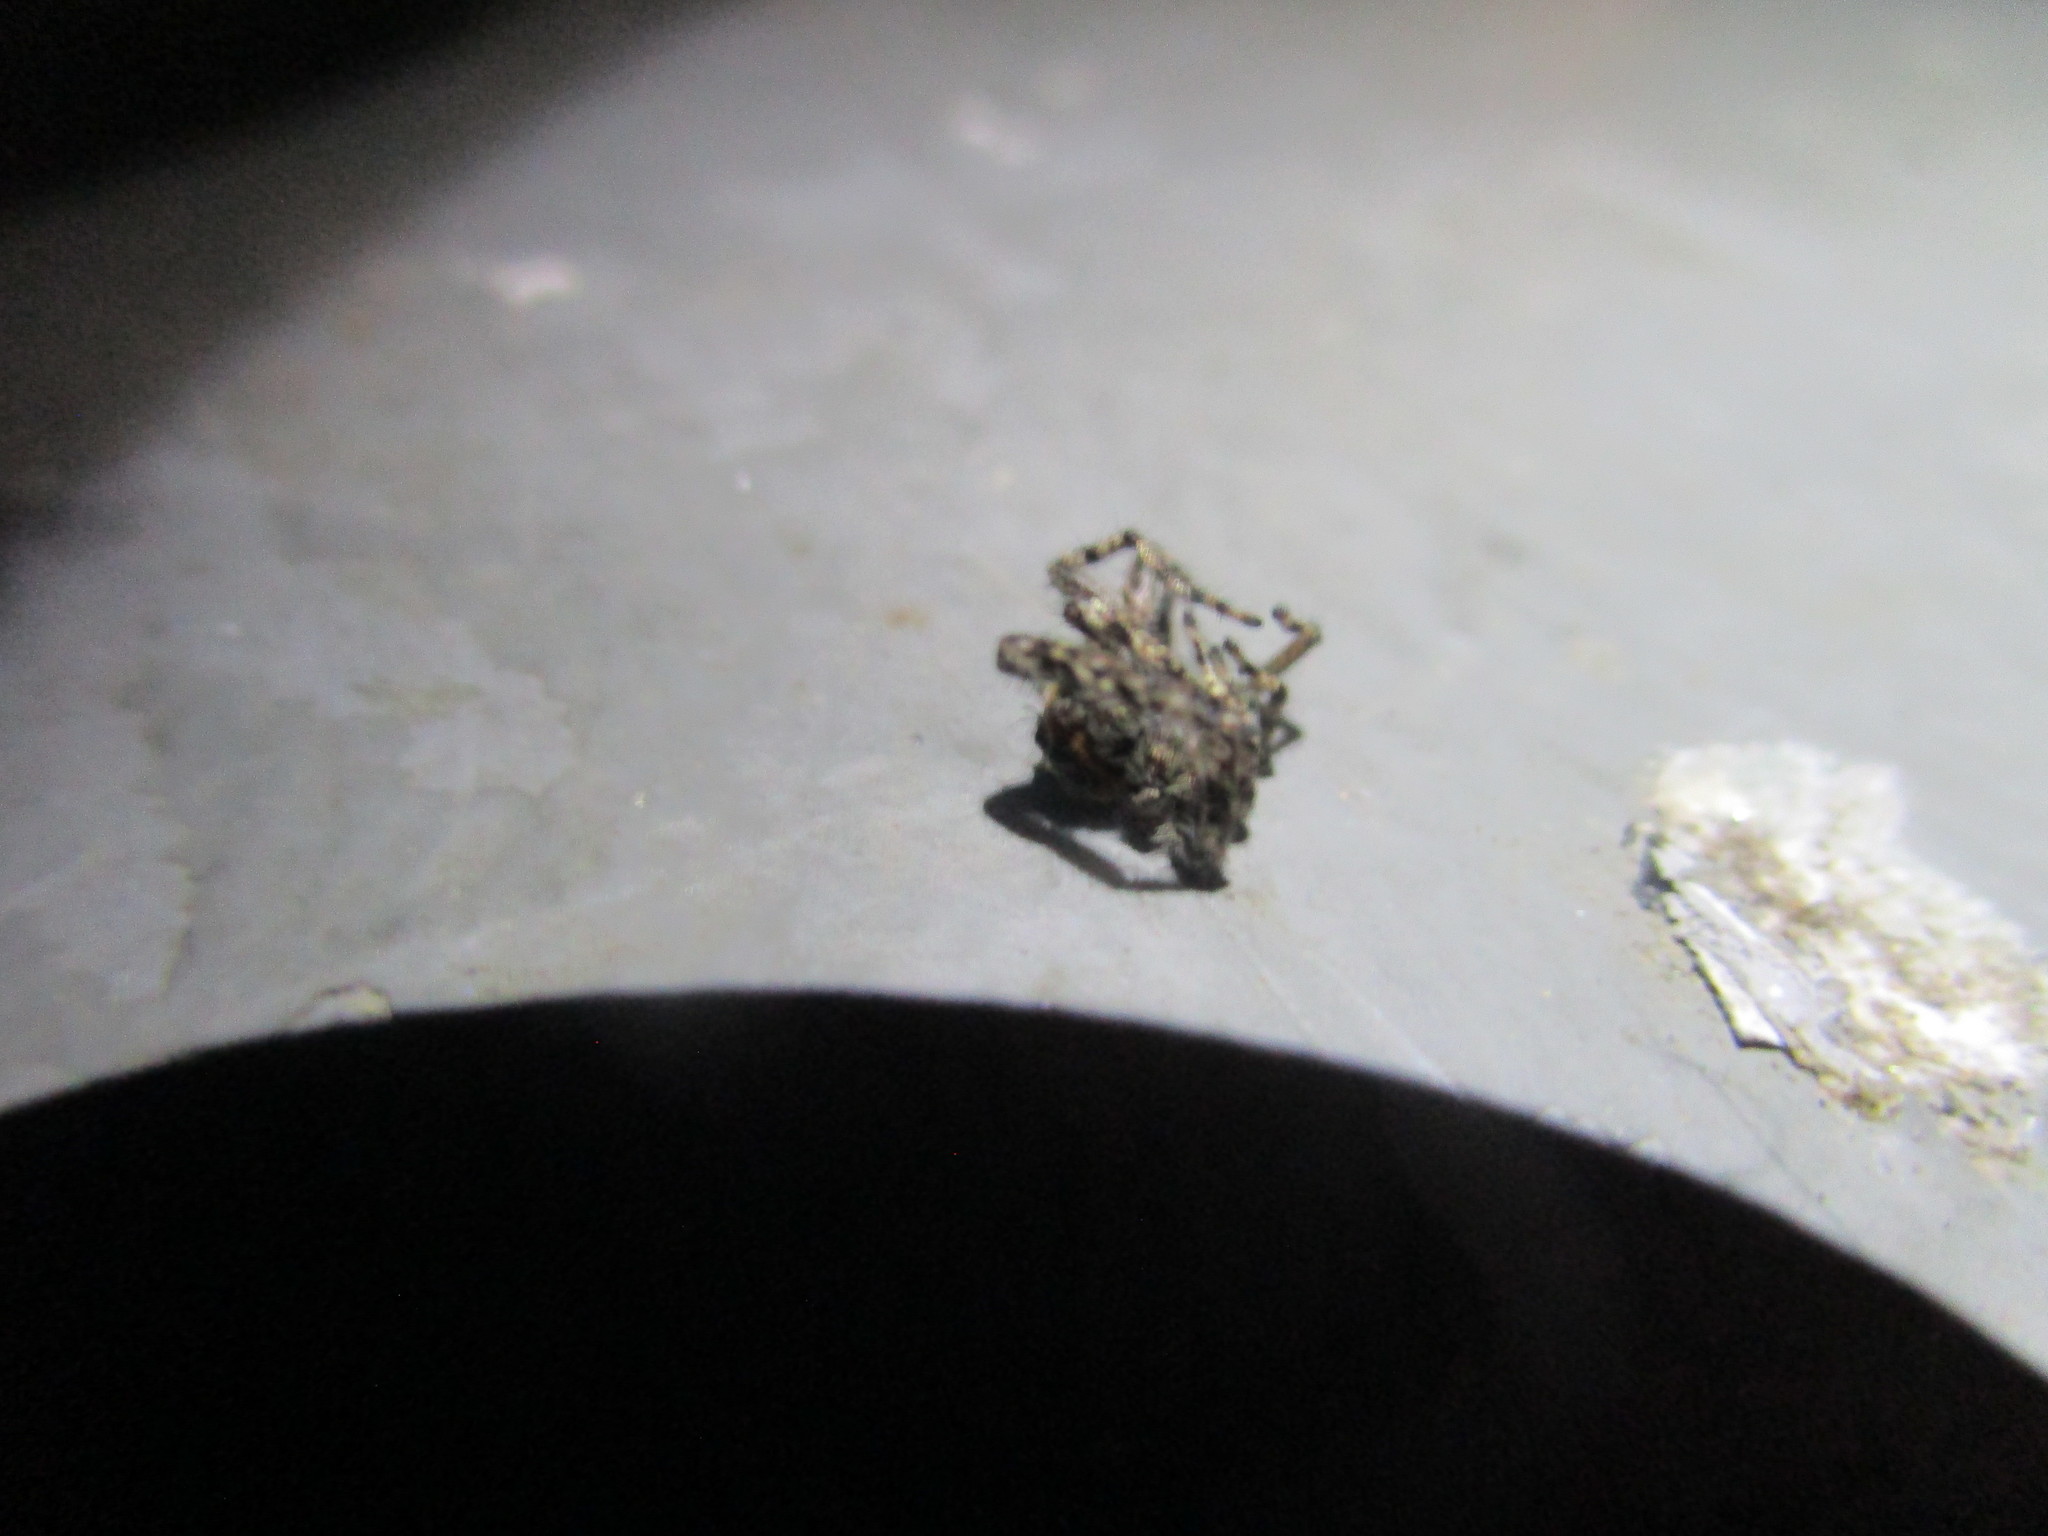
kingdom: Animalia
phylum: Arthropoda
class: Arachnida
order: Araneae
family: Salticidae
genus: Platycryptus
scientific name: Platycryptus undatus
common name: Tan jumping spider
